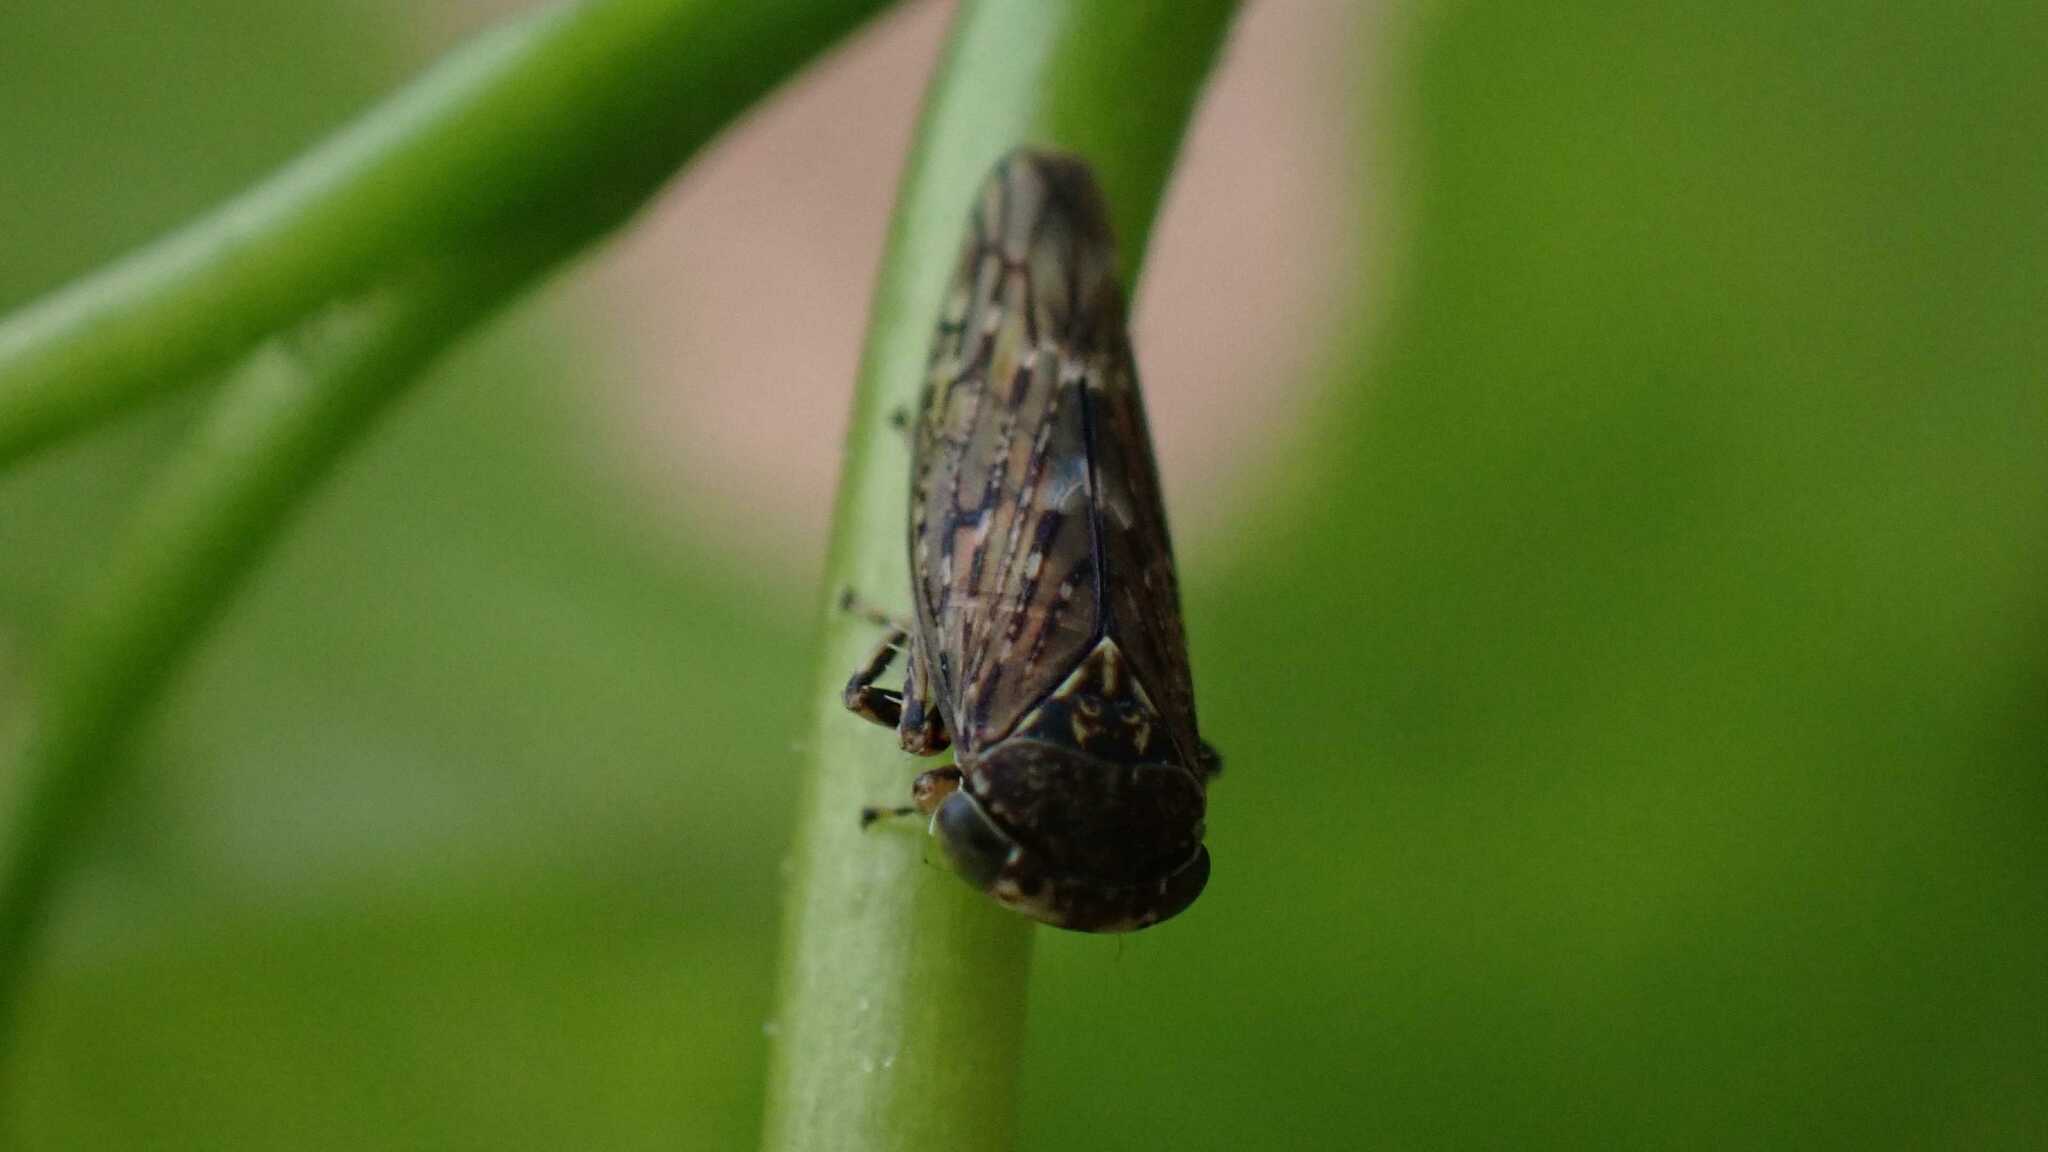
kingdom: Animalia
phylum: Arthropoda
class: Insecta
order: Hemiptera
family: Cicadellidae
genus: Acericerus
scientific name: Acericerus heydenii
